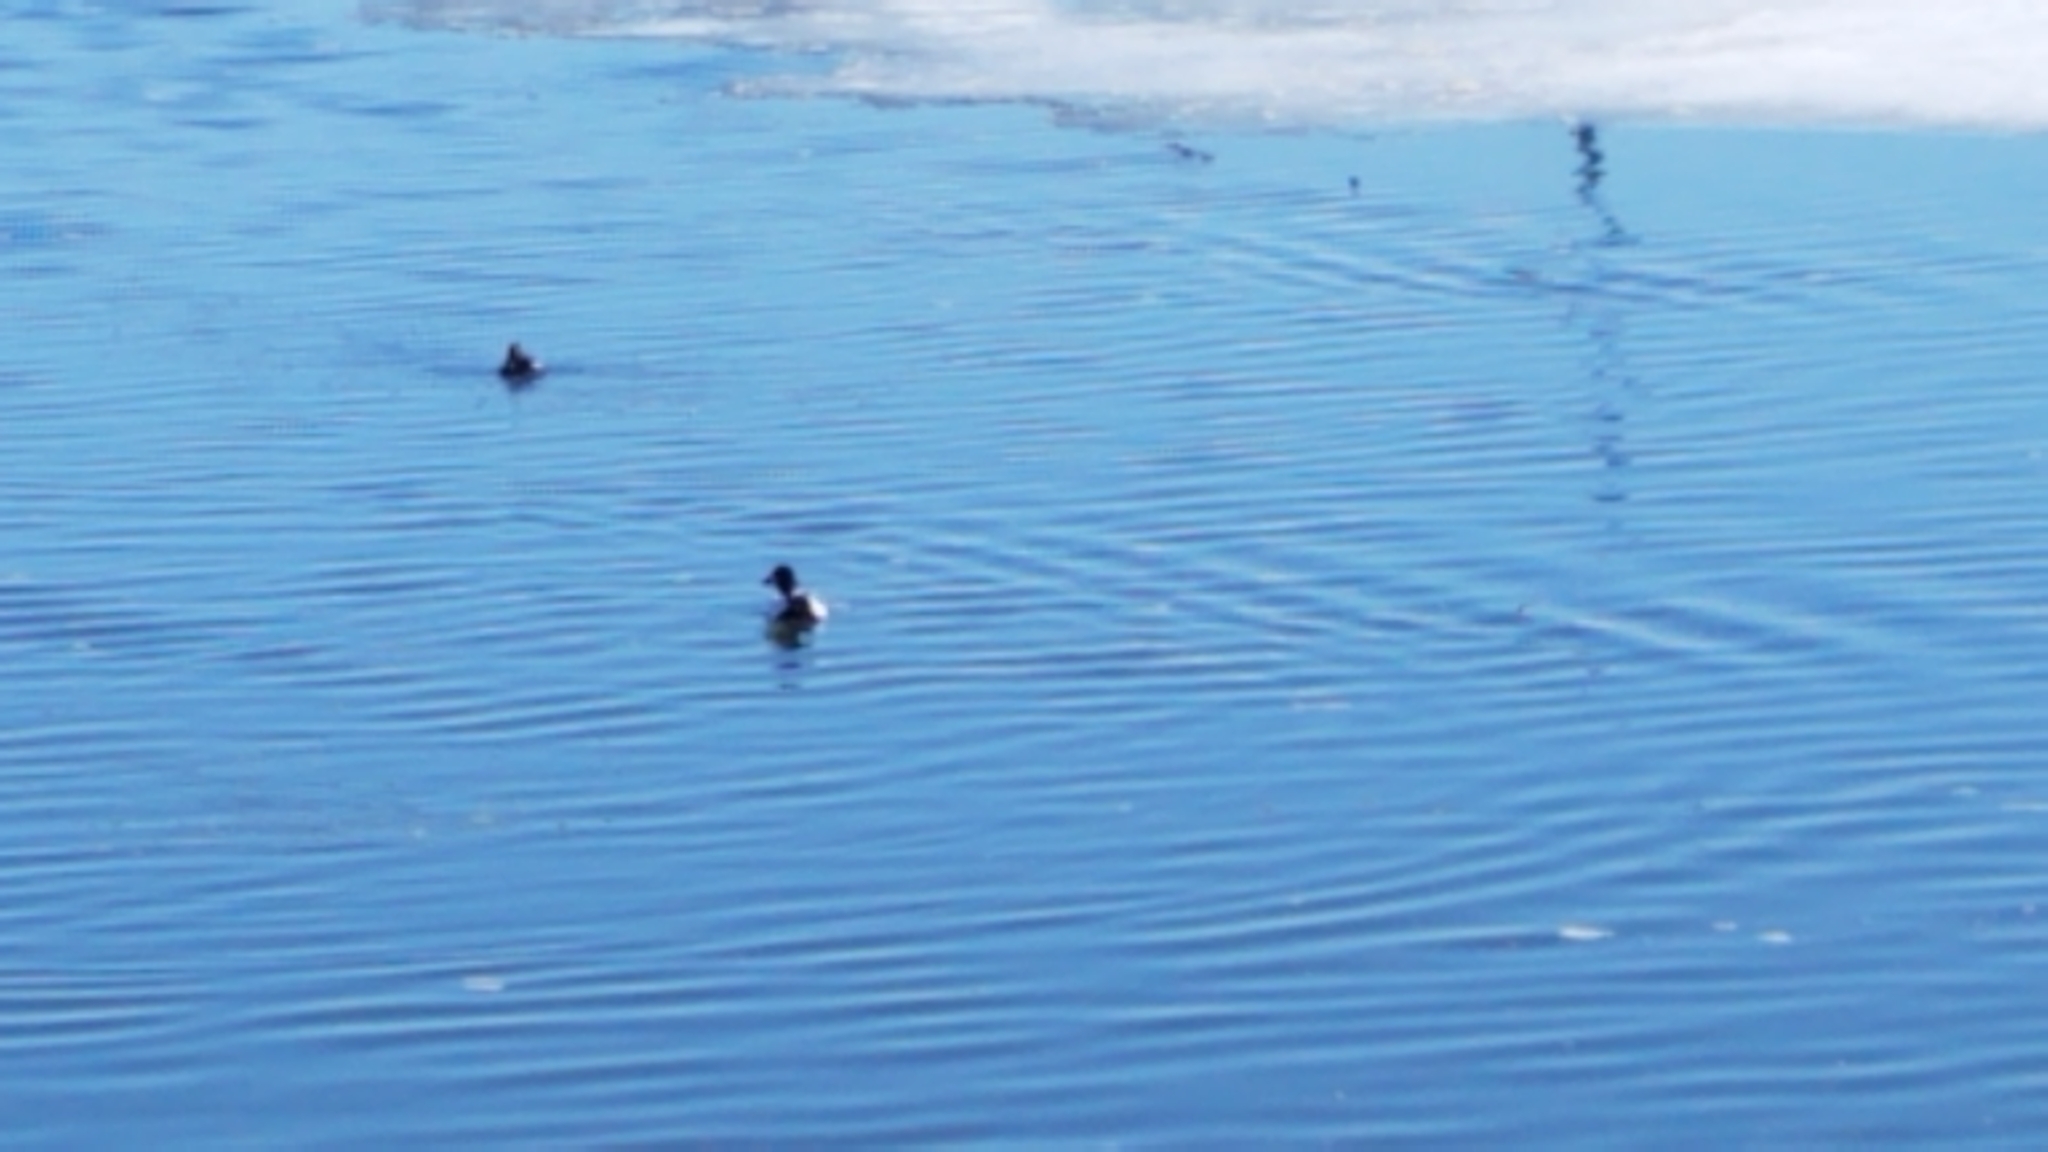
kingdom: Animalia
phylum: Chordata
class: Aves
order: Anseriformes
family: Anatidae
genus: Bucephala
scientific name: Bucephala clangula
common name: Common goldeneye
